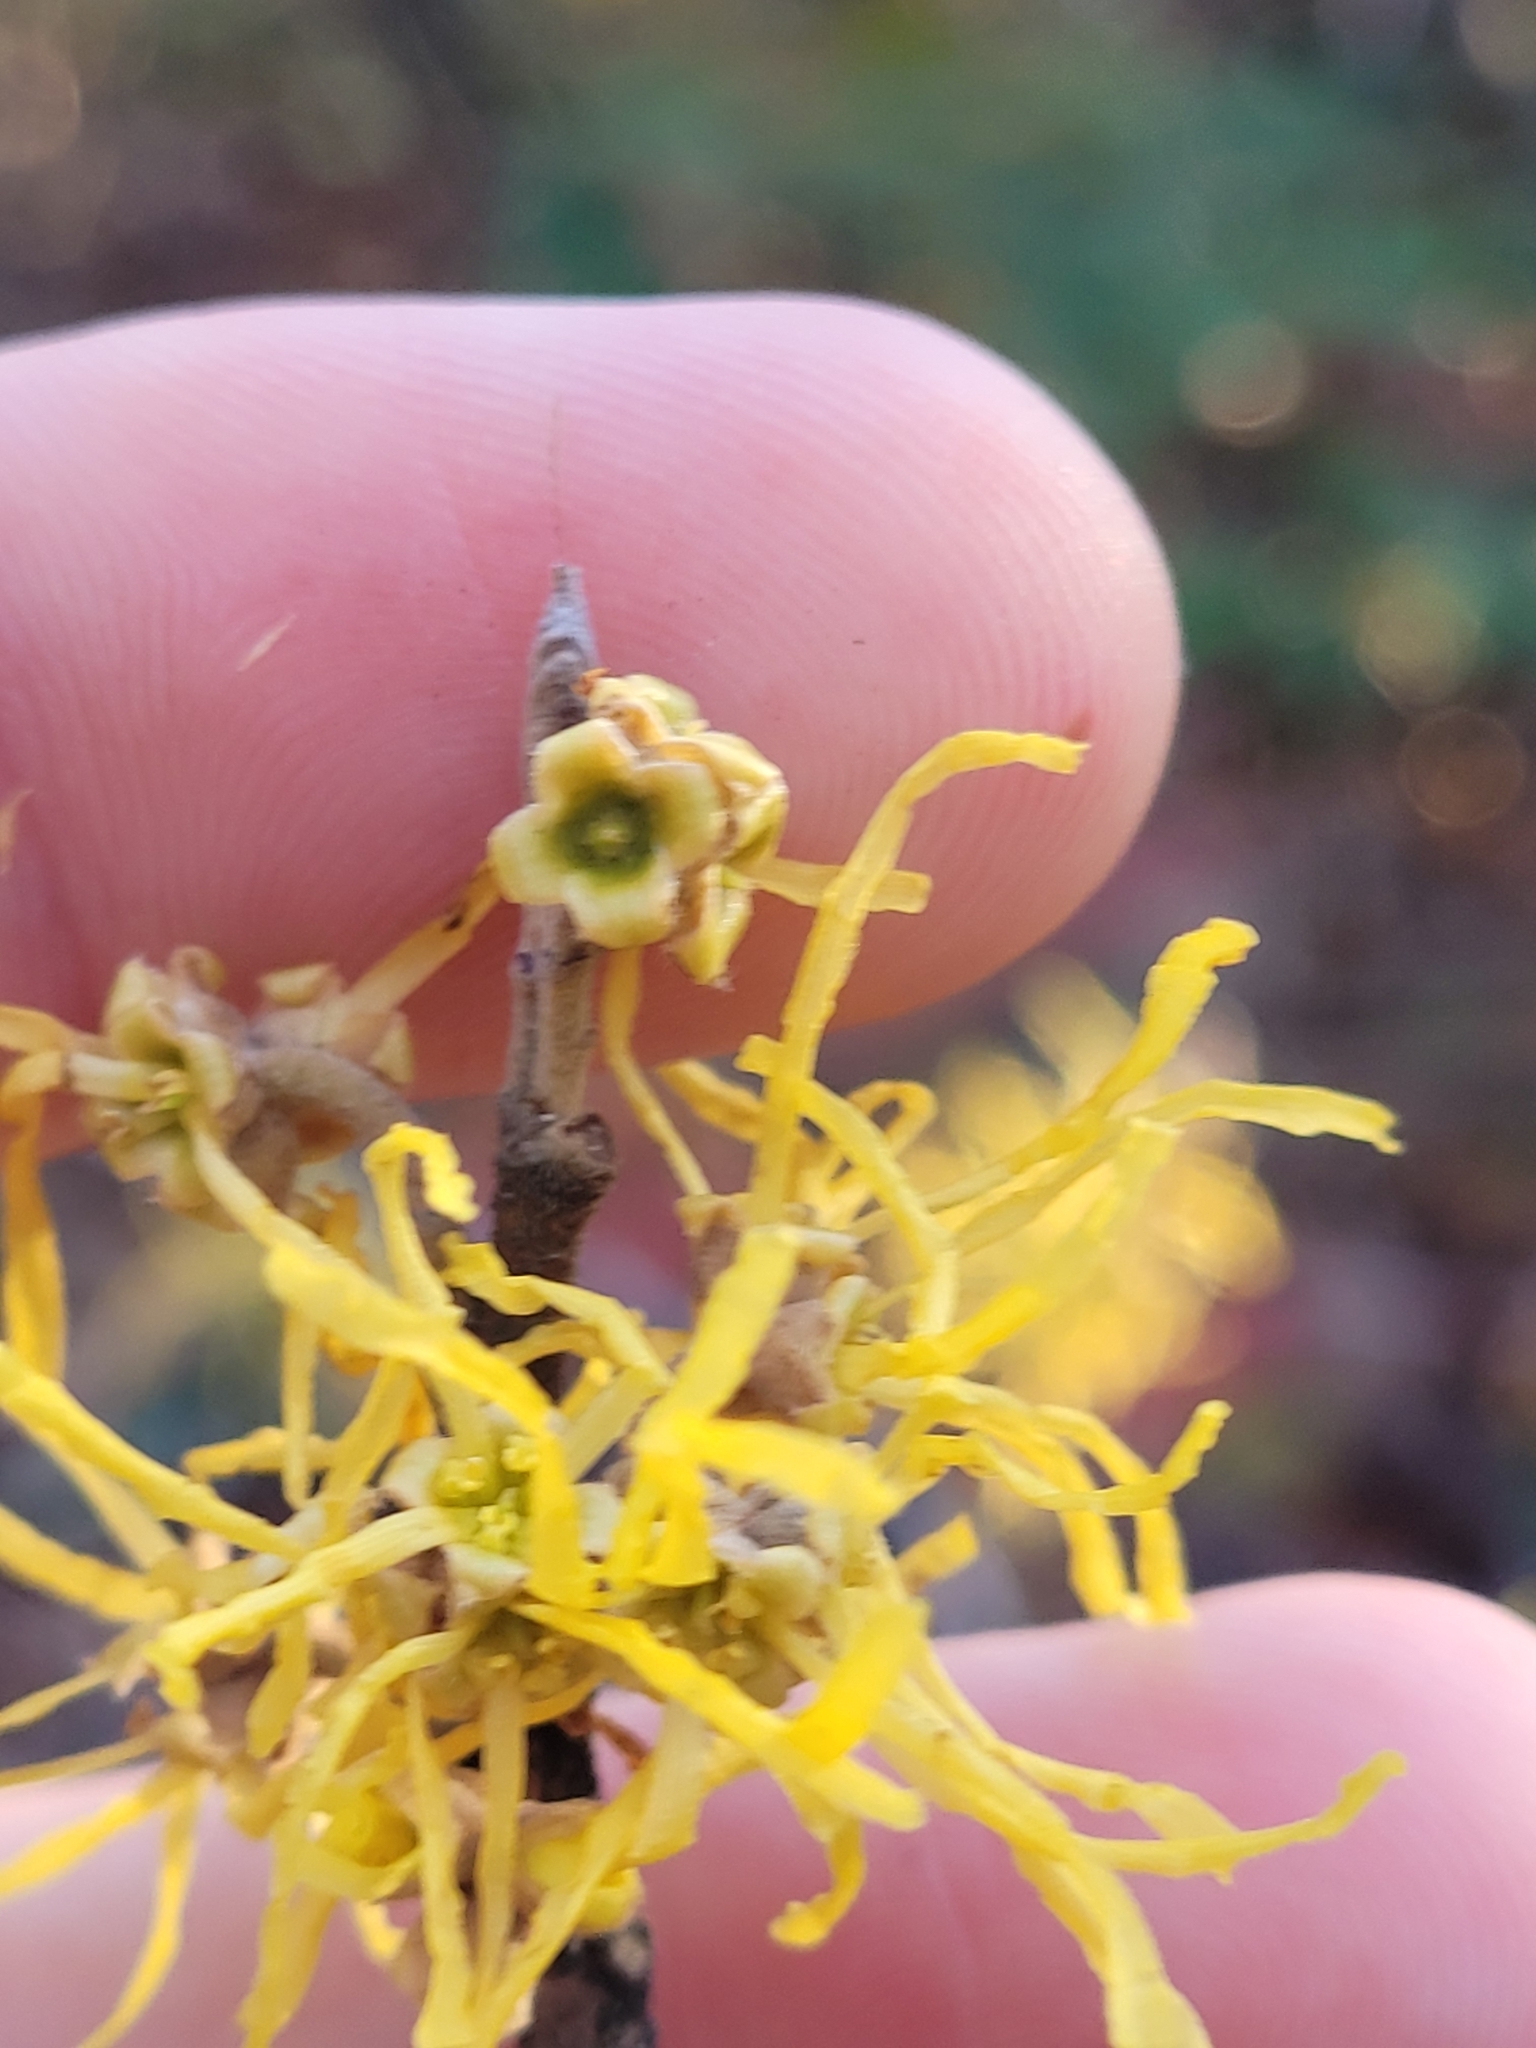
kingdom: Plantae
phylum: Tracheophyta
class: Magnoliopsida
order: Saxifragales
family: Hamamelidaceae
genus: Hamamelis
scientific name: Hamamelis virginiana
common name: Witch-hazel
